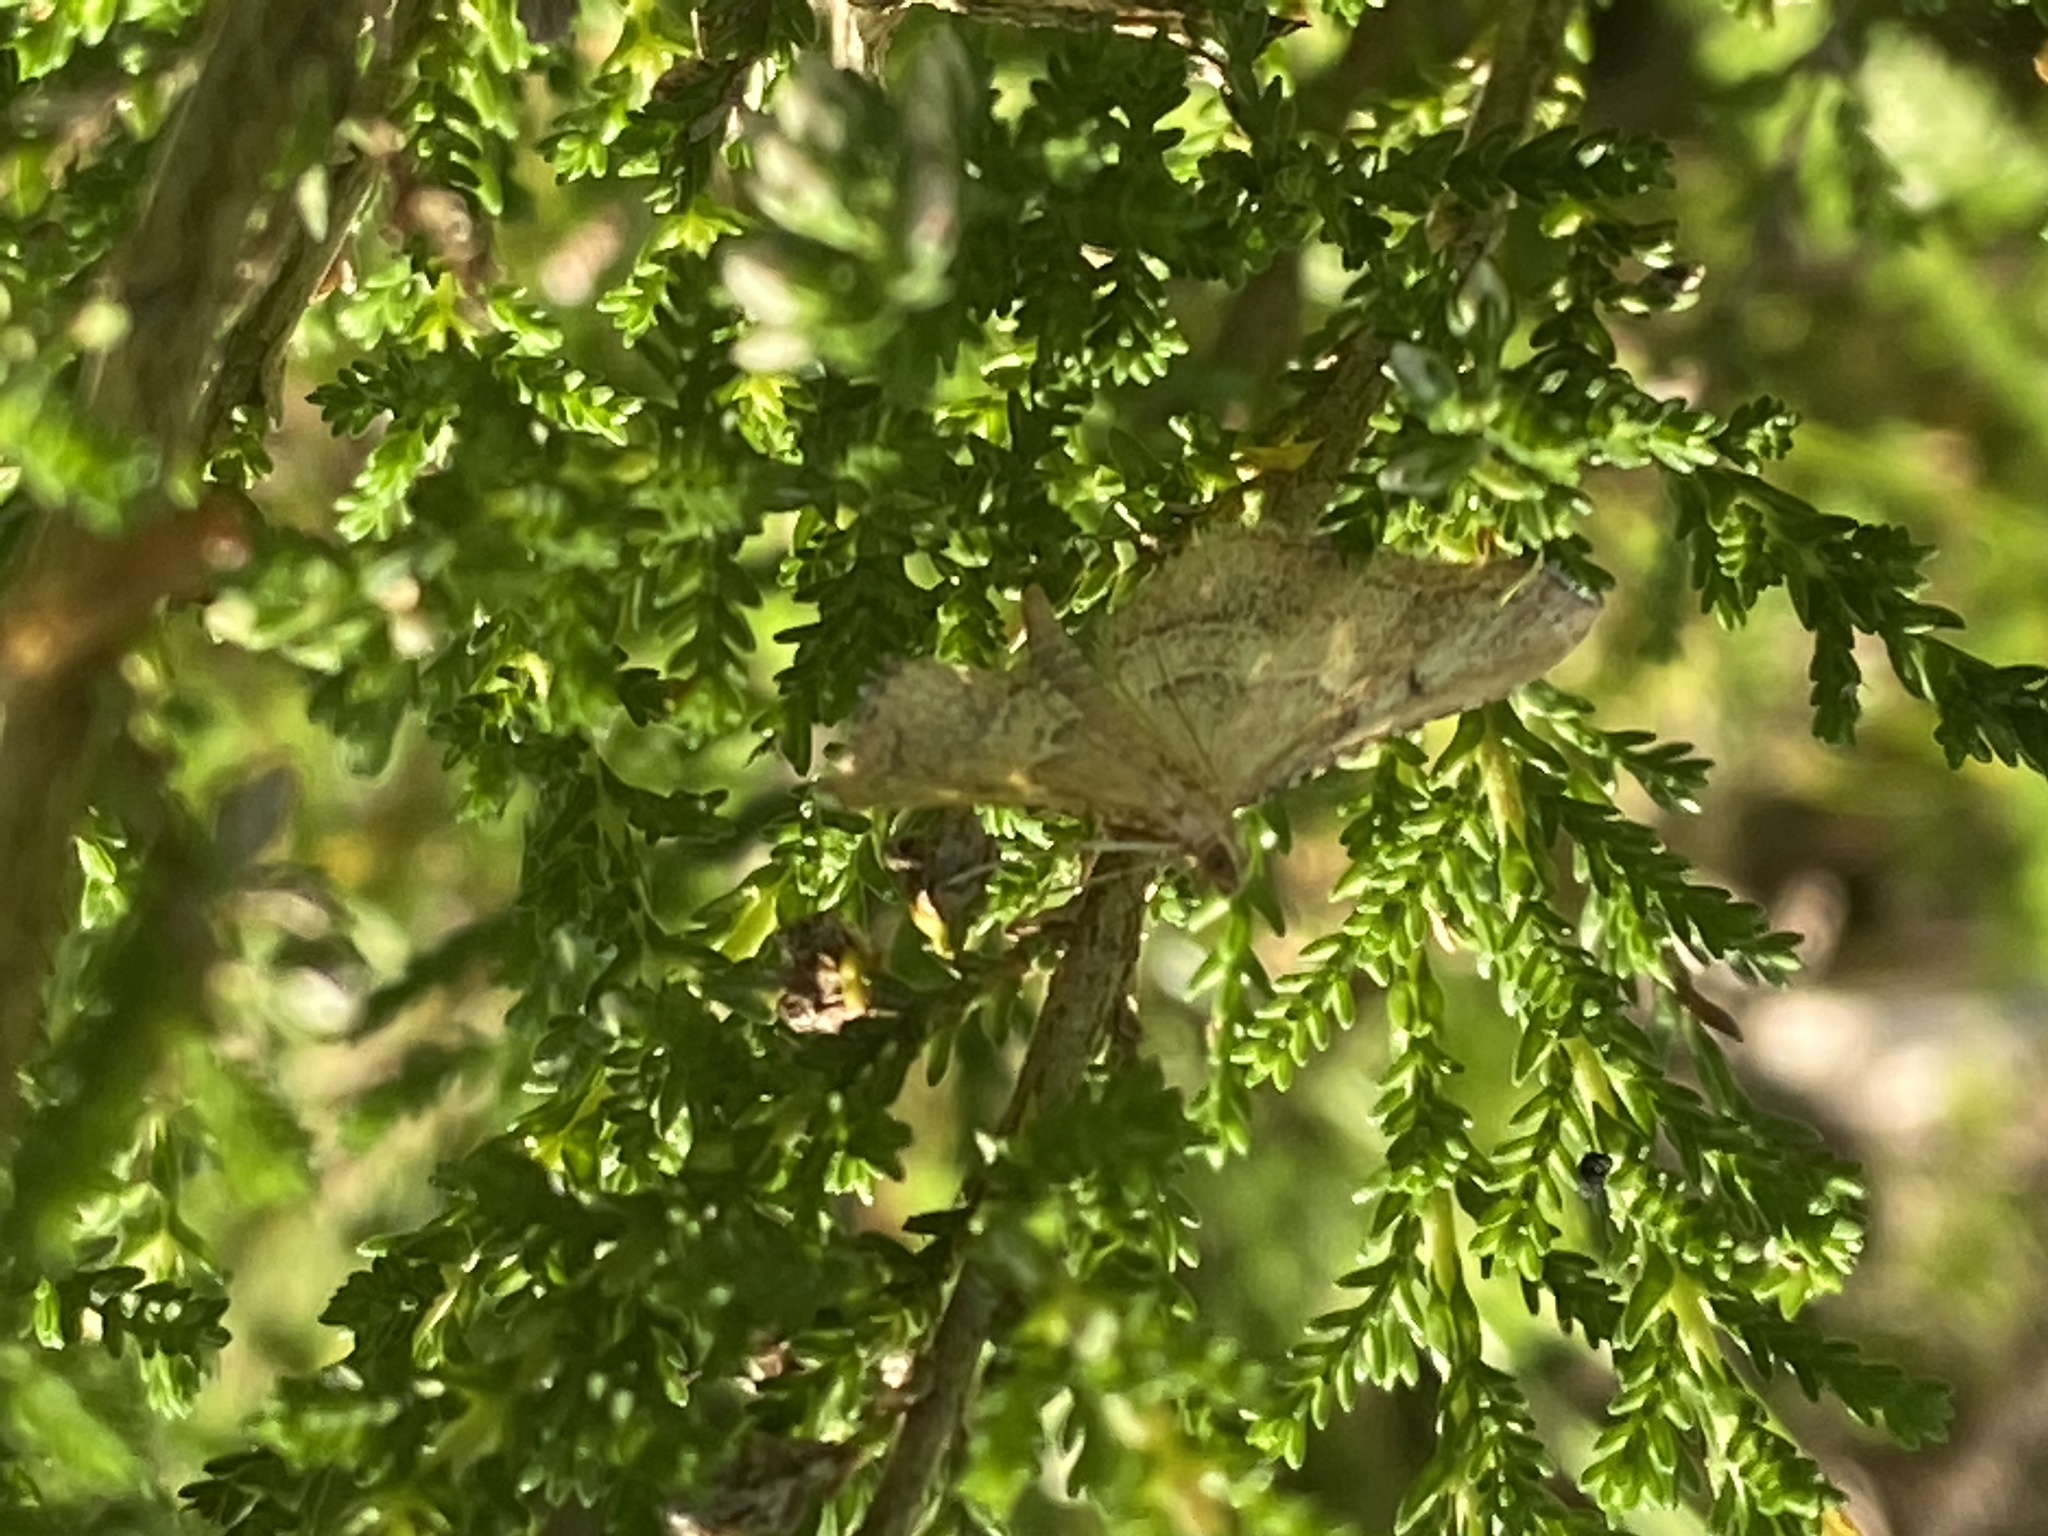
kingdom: Animalia
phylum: Arthropoda
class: Insecta
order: Lepidoptera
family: Pyralidae
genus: Endotricha
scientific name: Endotricha flammealis
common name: Rosy tabby
